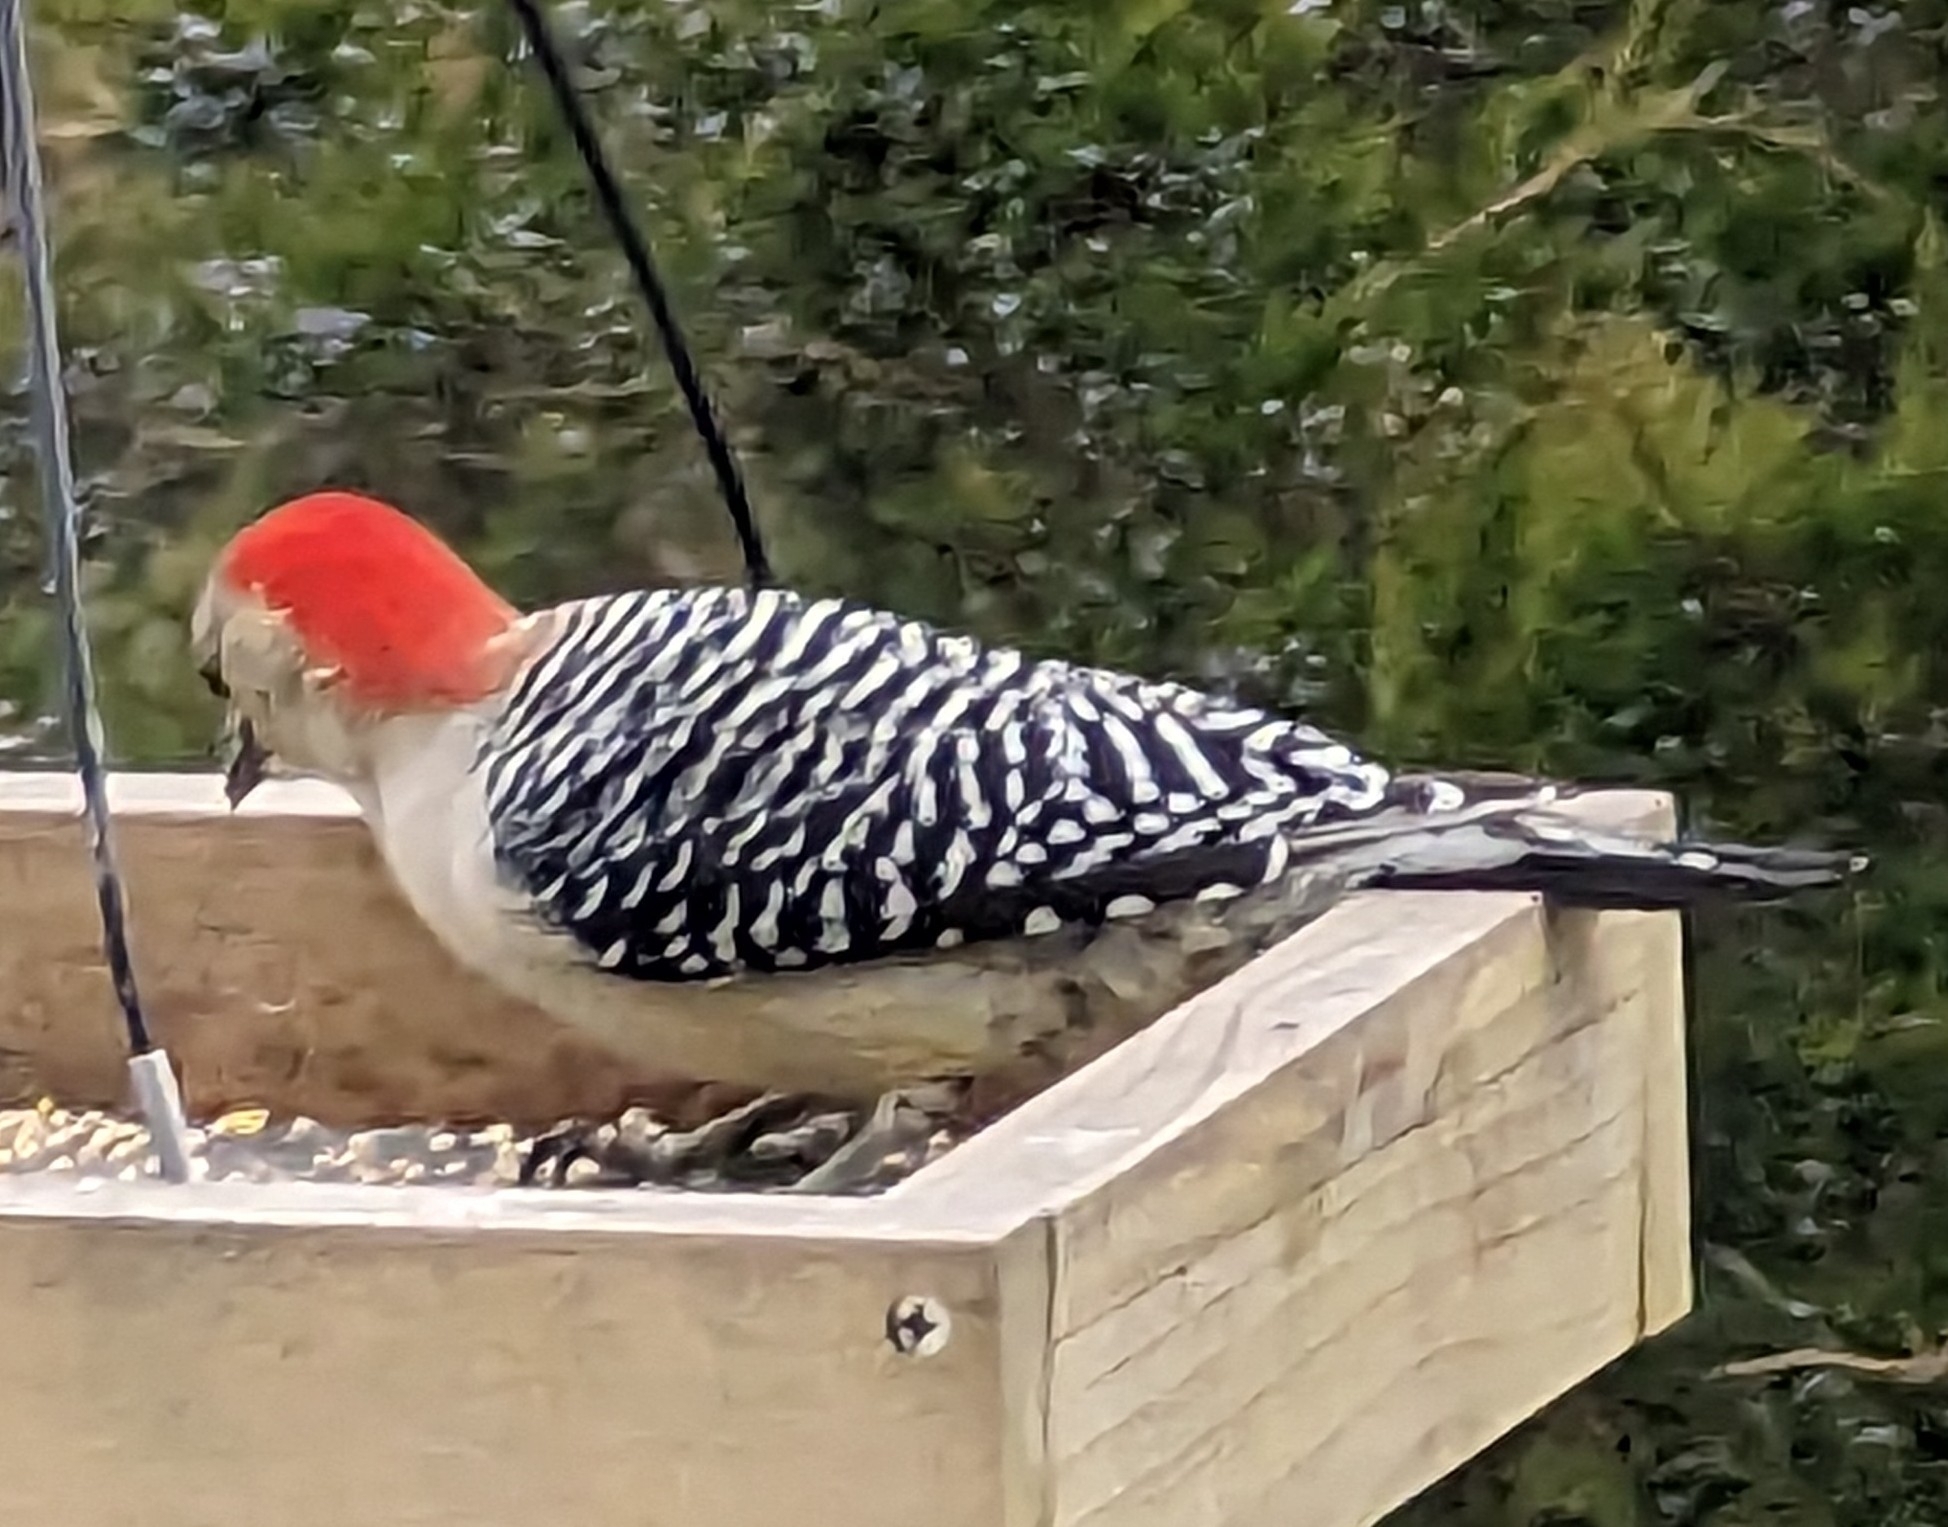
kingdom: Animalia
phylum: Chordata
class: Aves
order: Piciformes
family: Picidae
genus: Melanerpes
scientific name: Melanerpes carolinus
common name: Red-bellied woodpecker
